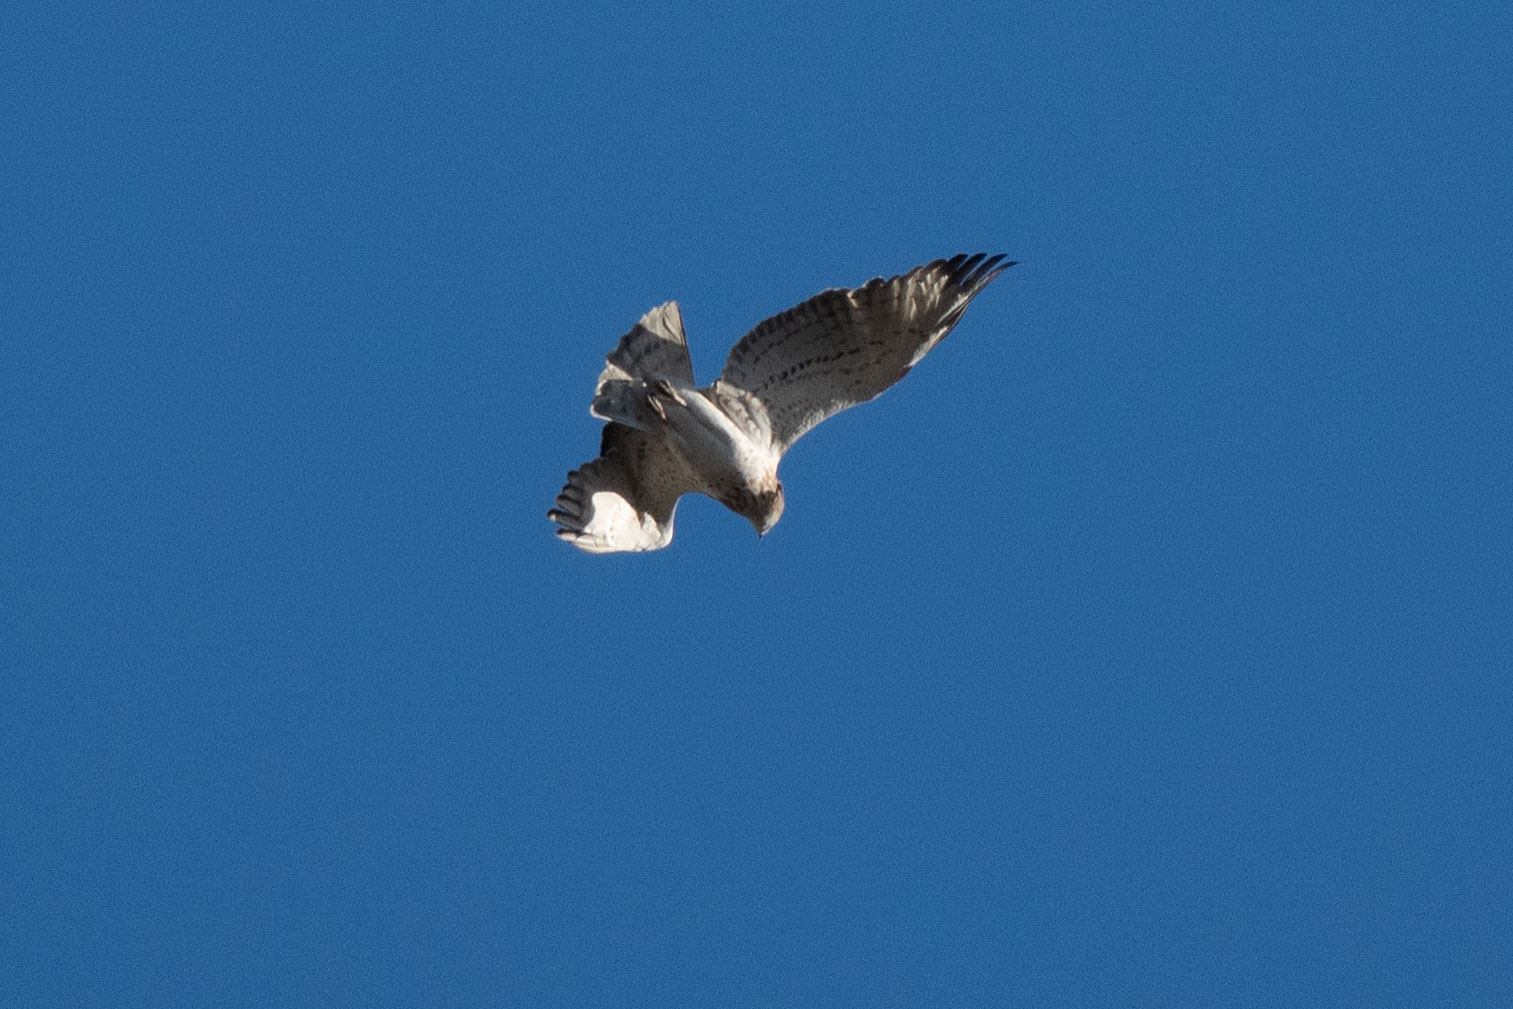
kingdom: Animalia
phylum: Chordata
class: Aves
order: Accipitriformes
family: Accipitridae
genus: Circaetus
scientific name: Circaetus gallicus
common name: Short-toed snake eagle
